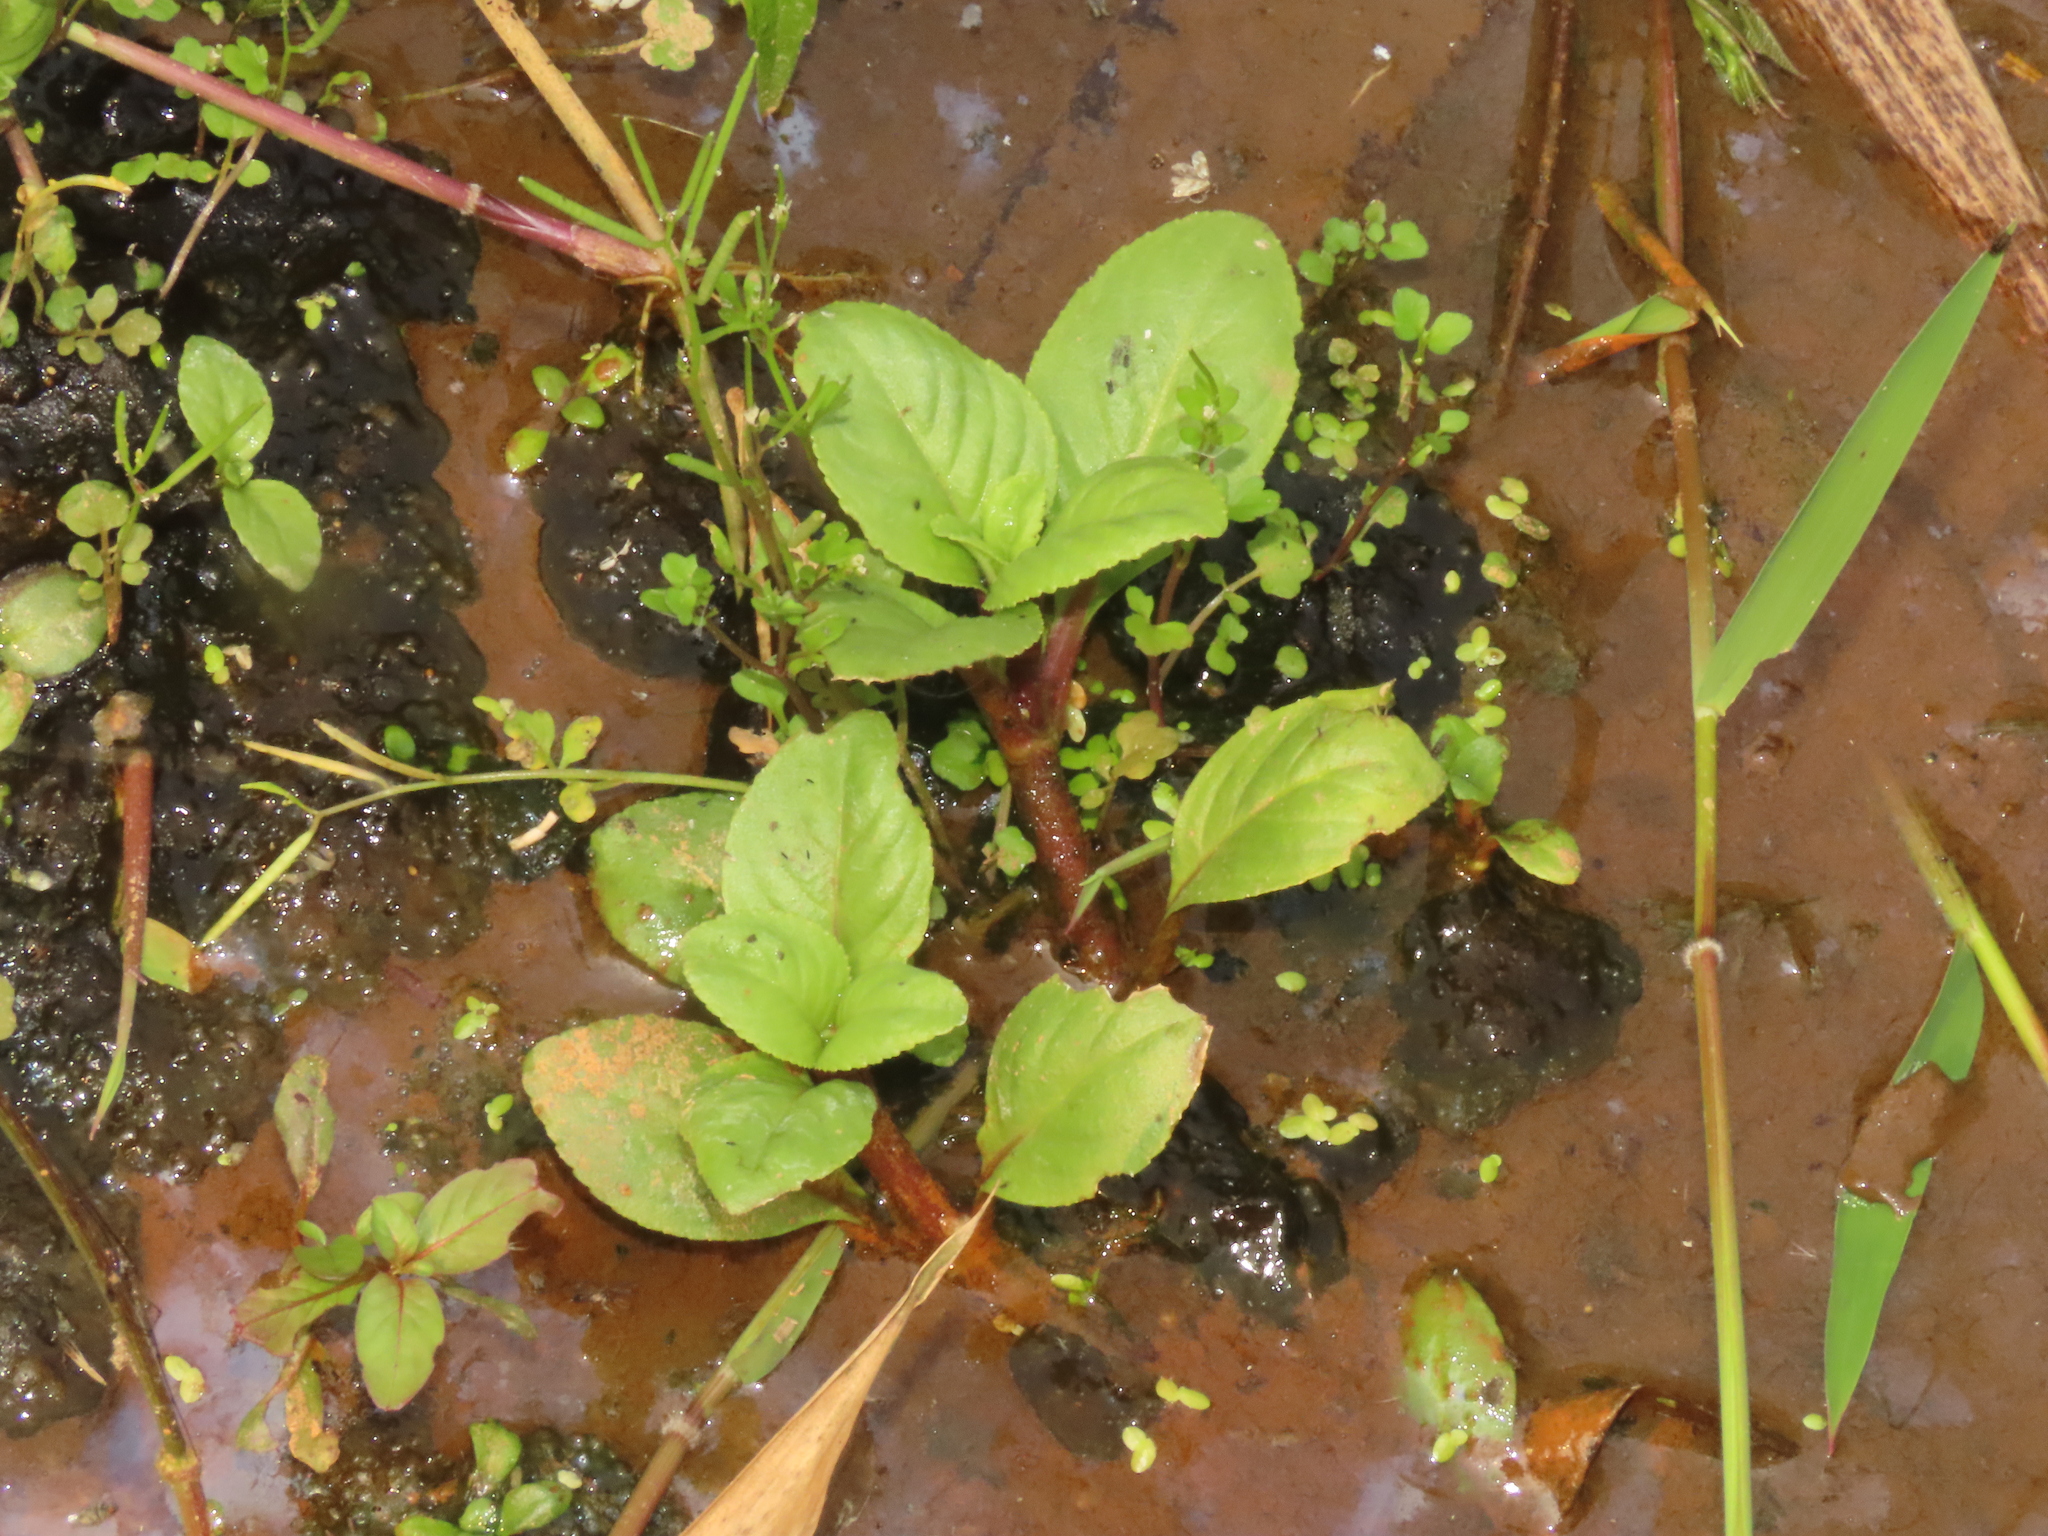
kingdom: Plantae
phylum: Tracheophyta
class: Magnoliopsida
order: Lamiales
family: Plantaginaceae
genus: Limnophila
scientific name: Limnophila rugosa
